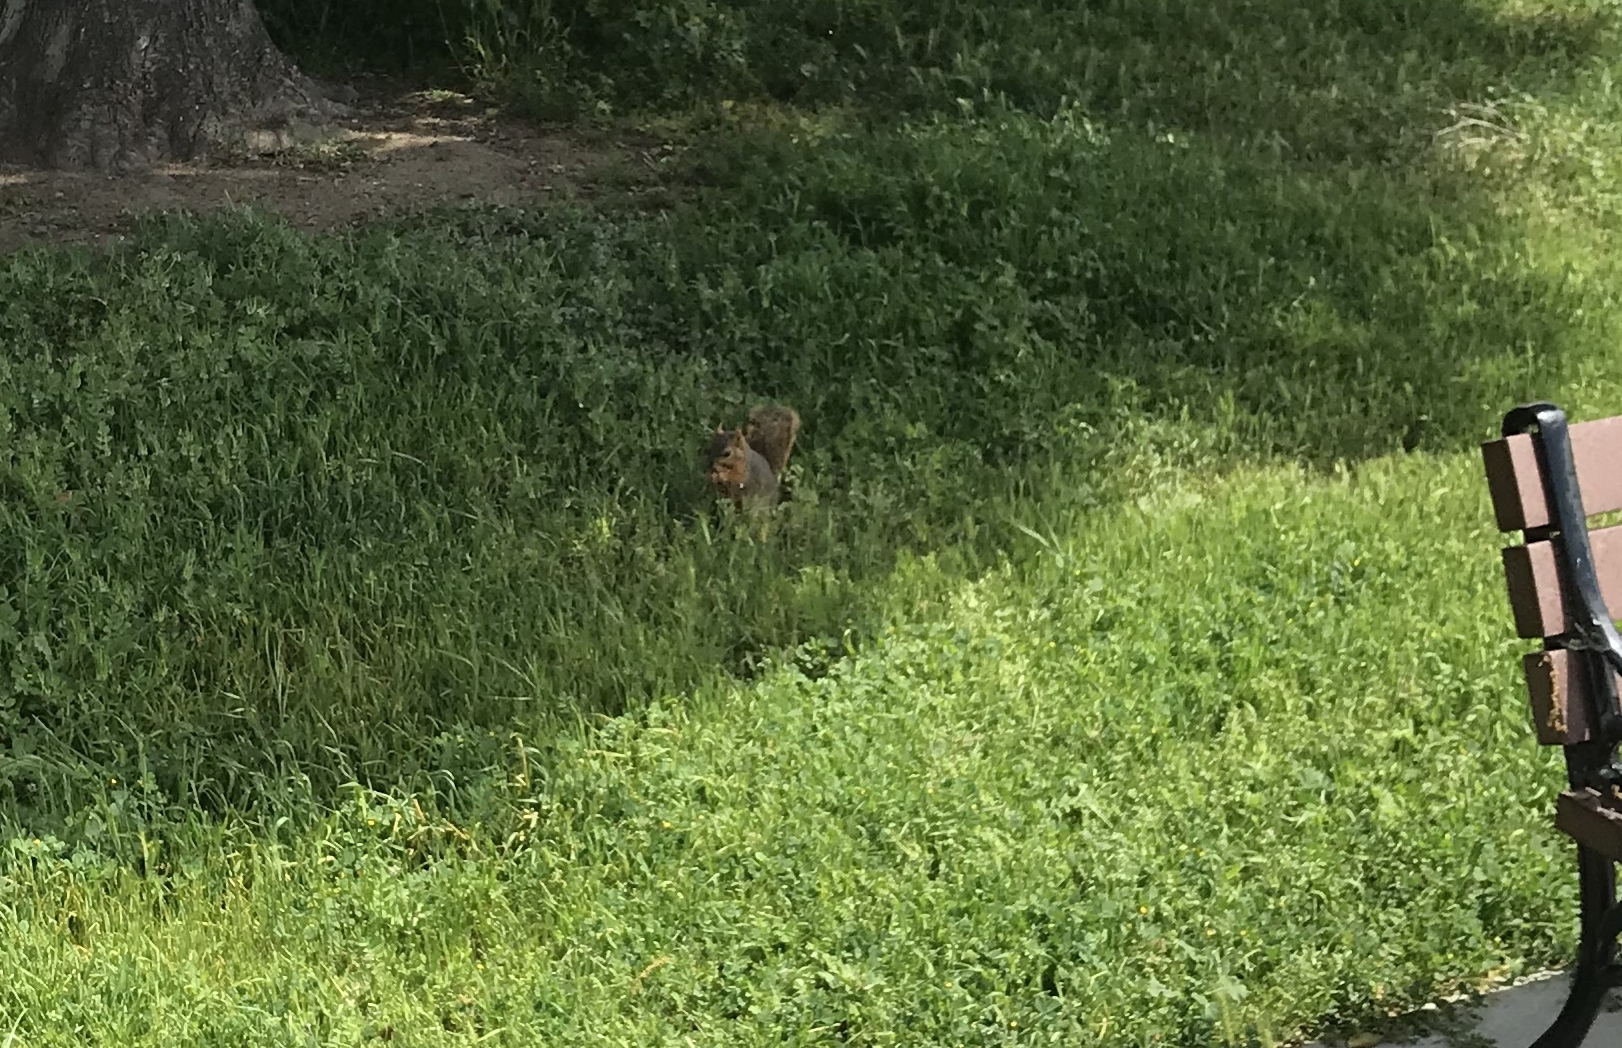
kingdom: Animalia
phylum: Chordata
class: Mammalia
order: Rodentia
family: Sciuridae
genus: Sciurus
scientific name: Sciurus niger
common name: Fox squirrel
